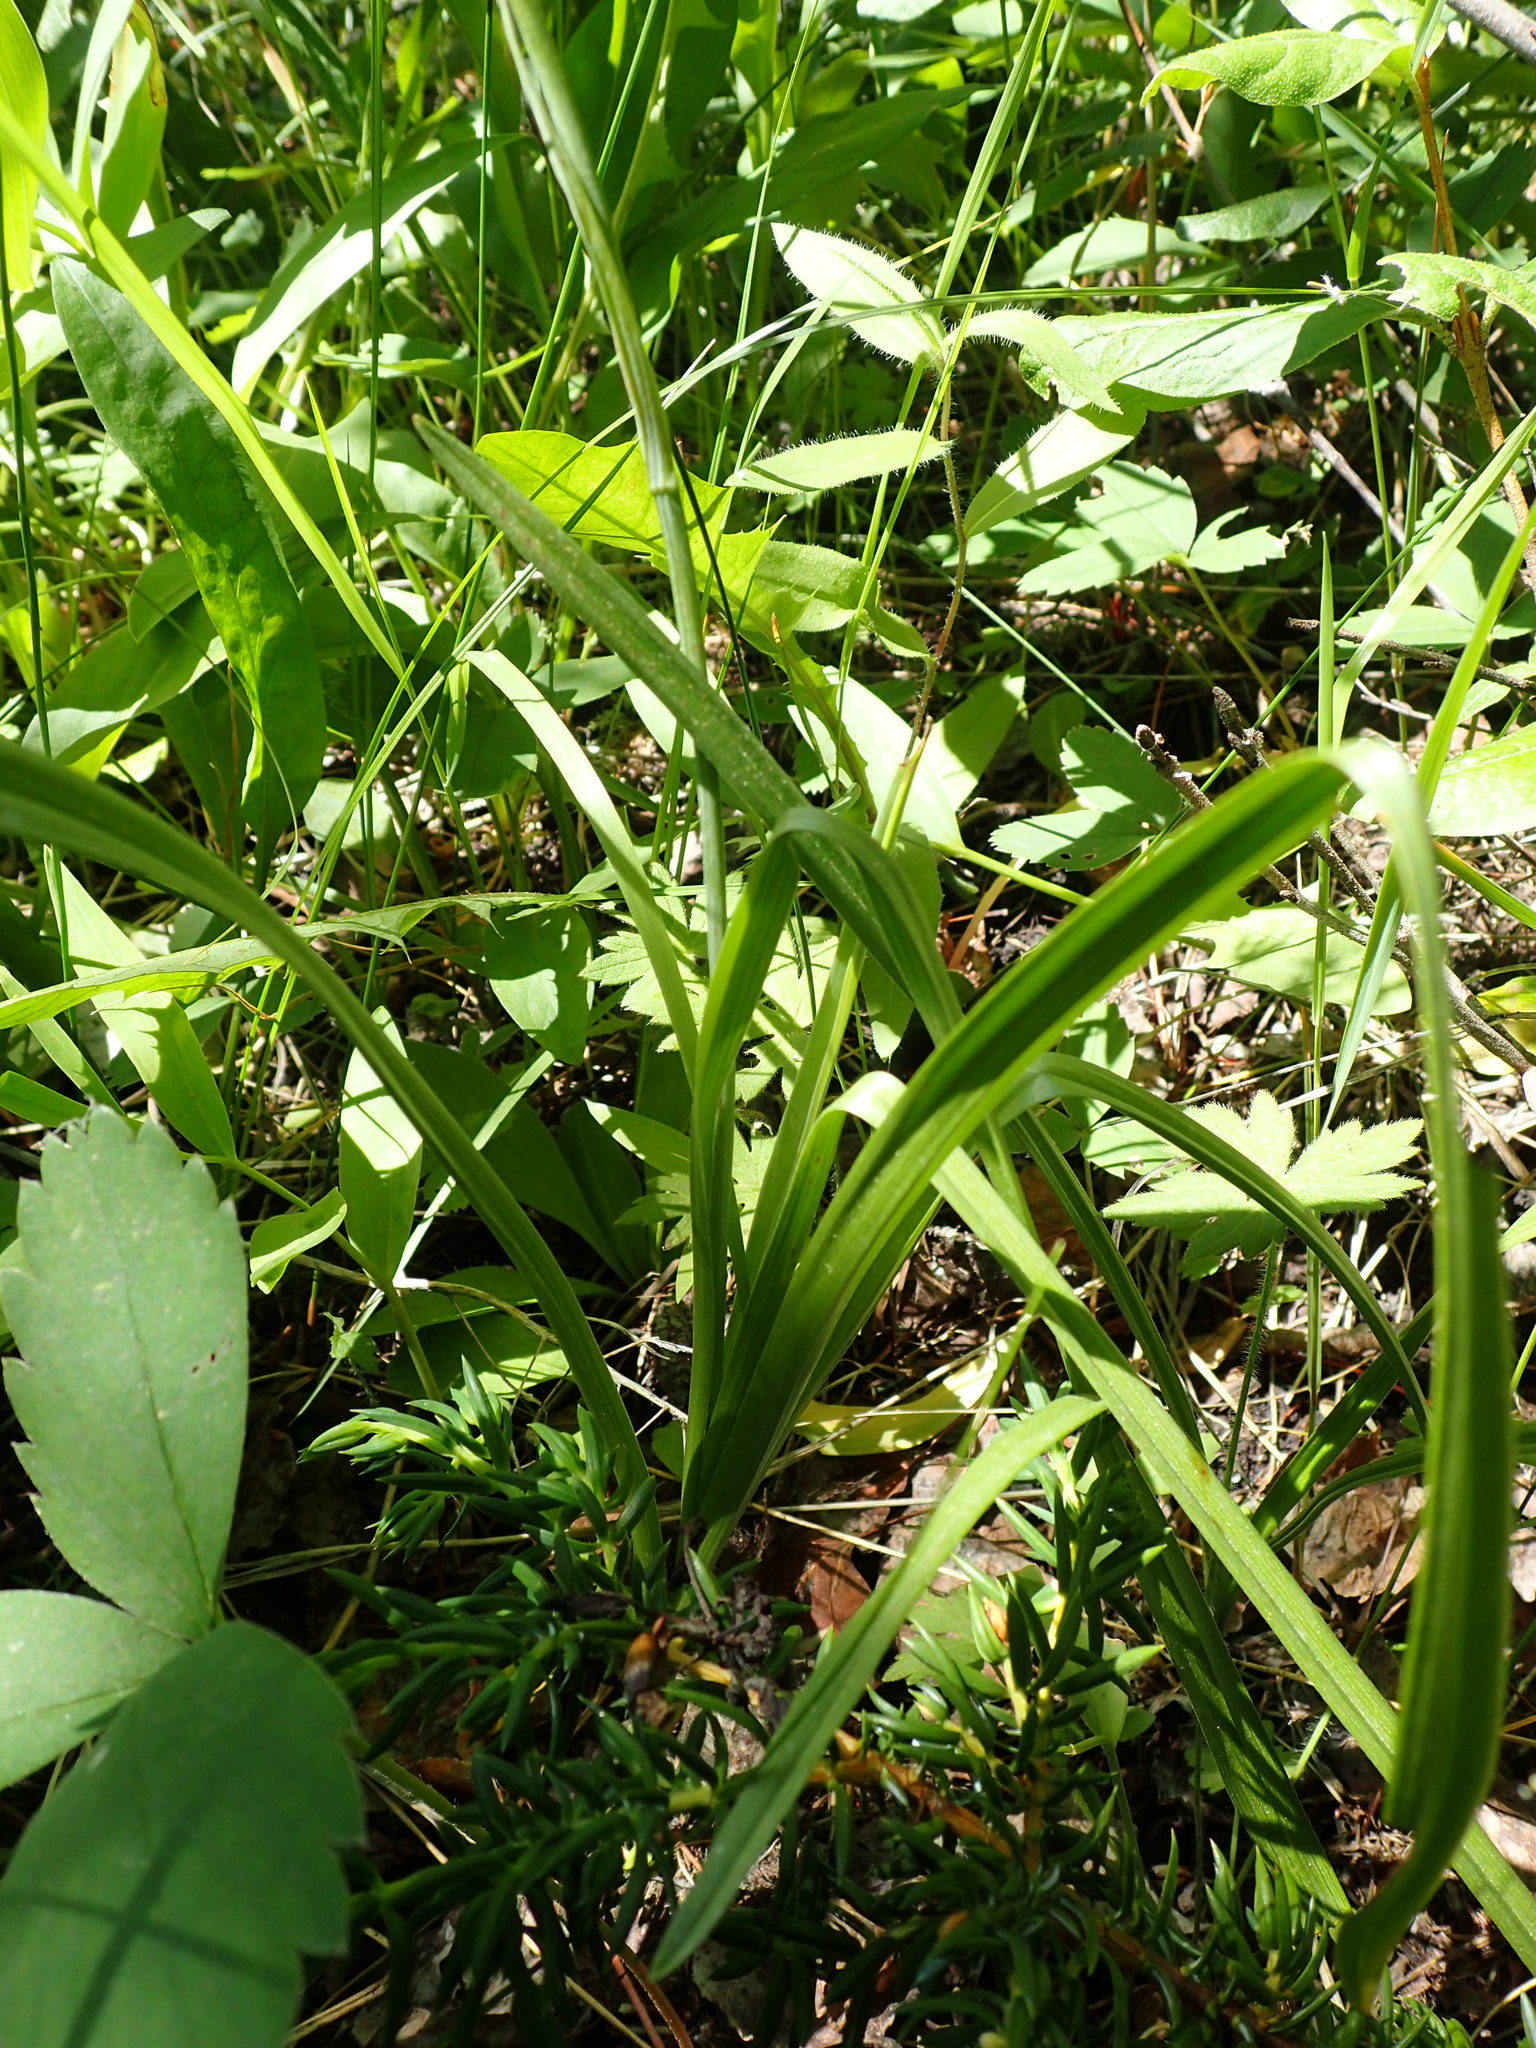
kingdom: Plantae
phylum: Tracheophyta
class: Liliopsida
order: Liliales
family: Melanthiaceae
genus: Anticlea
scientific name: Anticlea elegans
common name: Mountain death camas
